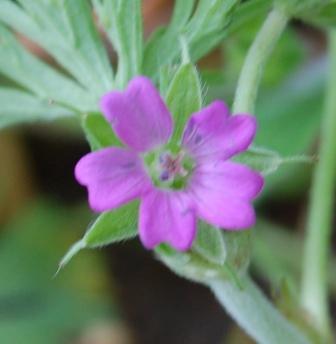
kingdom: Plantae
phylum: Tracheophyta
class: Magnoliopsida
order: Geraniales
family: Geraniaceae
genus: Geranium
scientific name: Geranium dissectum
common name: Cut-leaved crane's-bill
